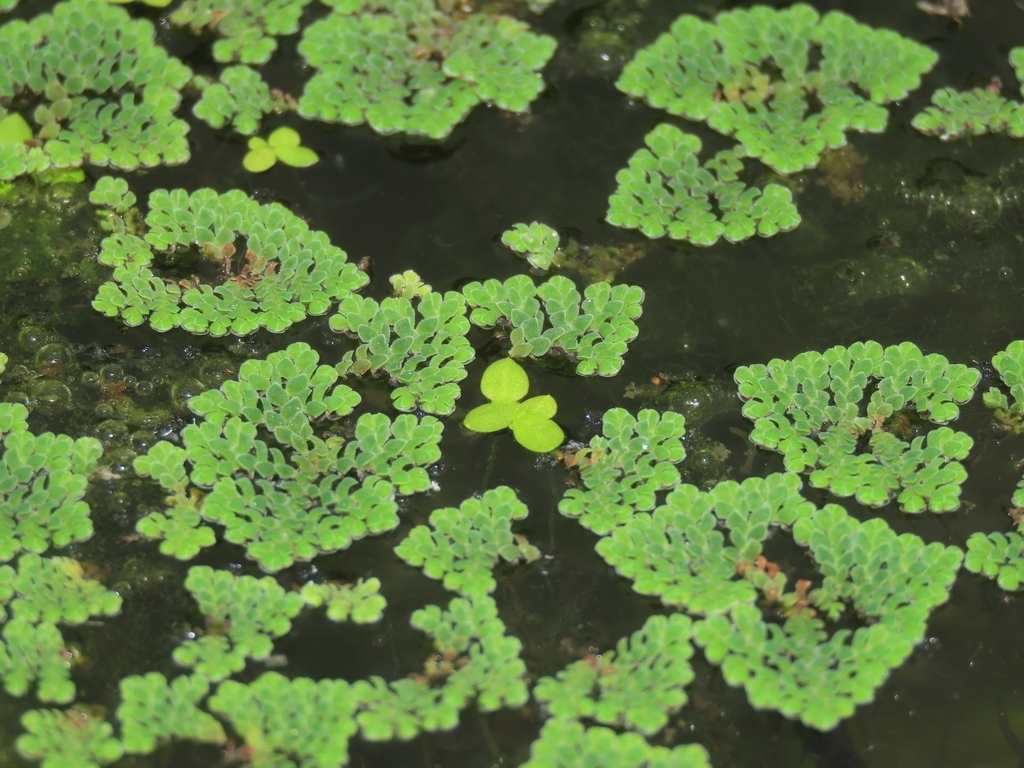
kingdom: Plantae
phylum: Tracheophyta
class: Liliopsida
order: Alismatales
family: Araceae
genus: Lemna
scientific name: Lemna aequinoctialis
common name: Duckweed
